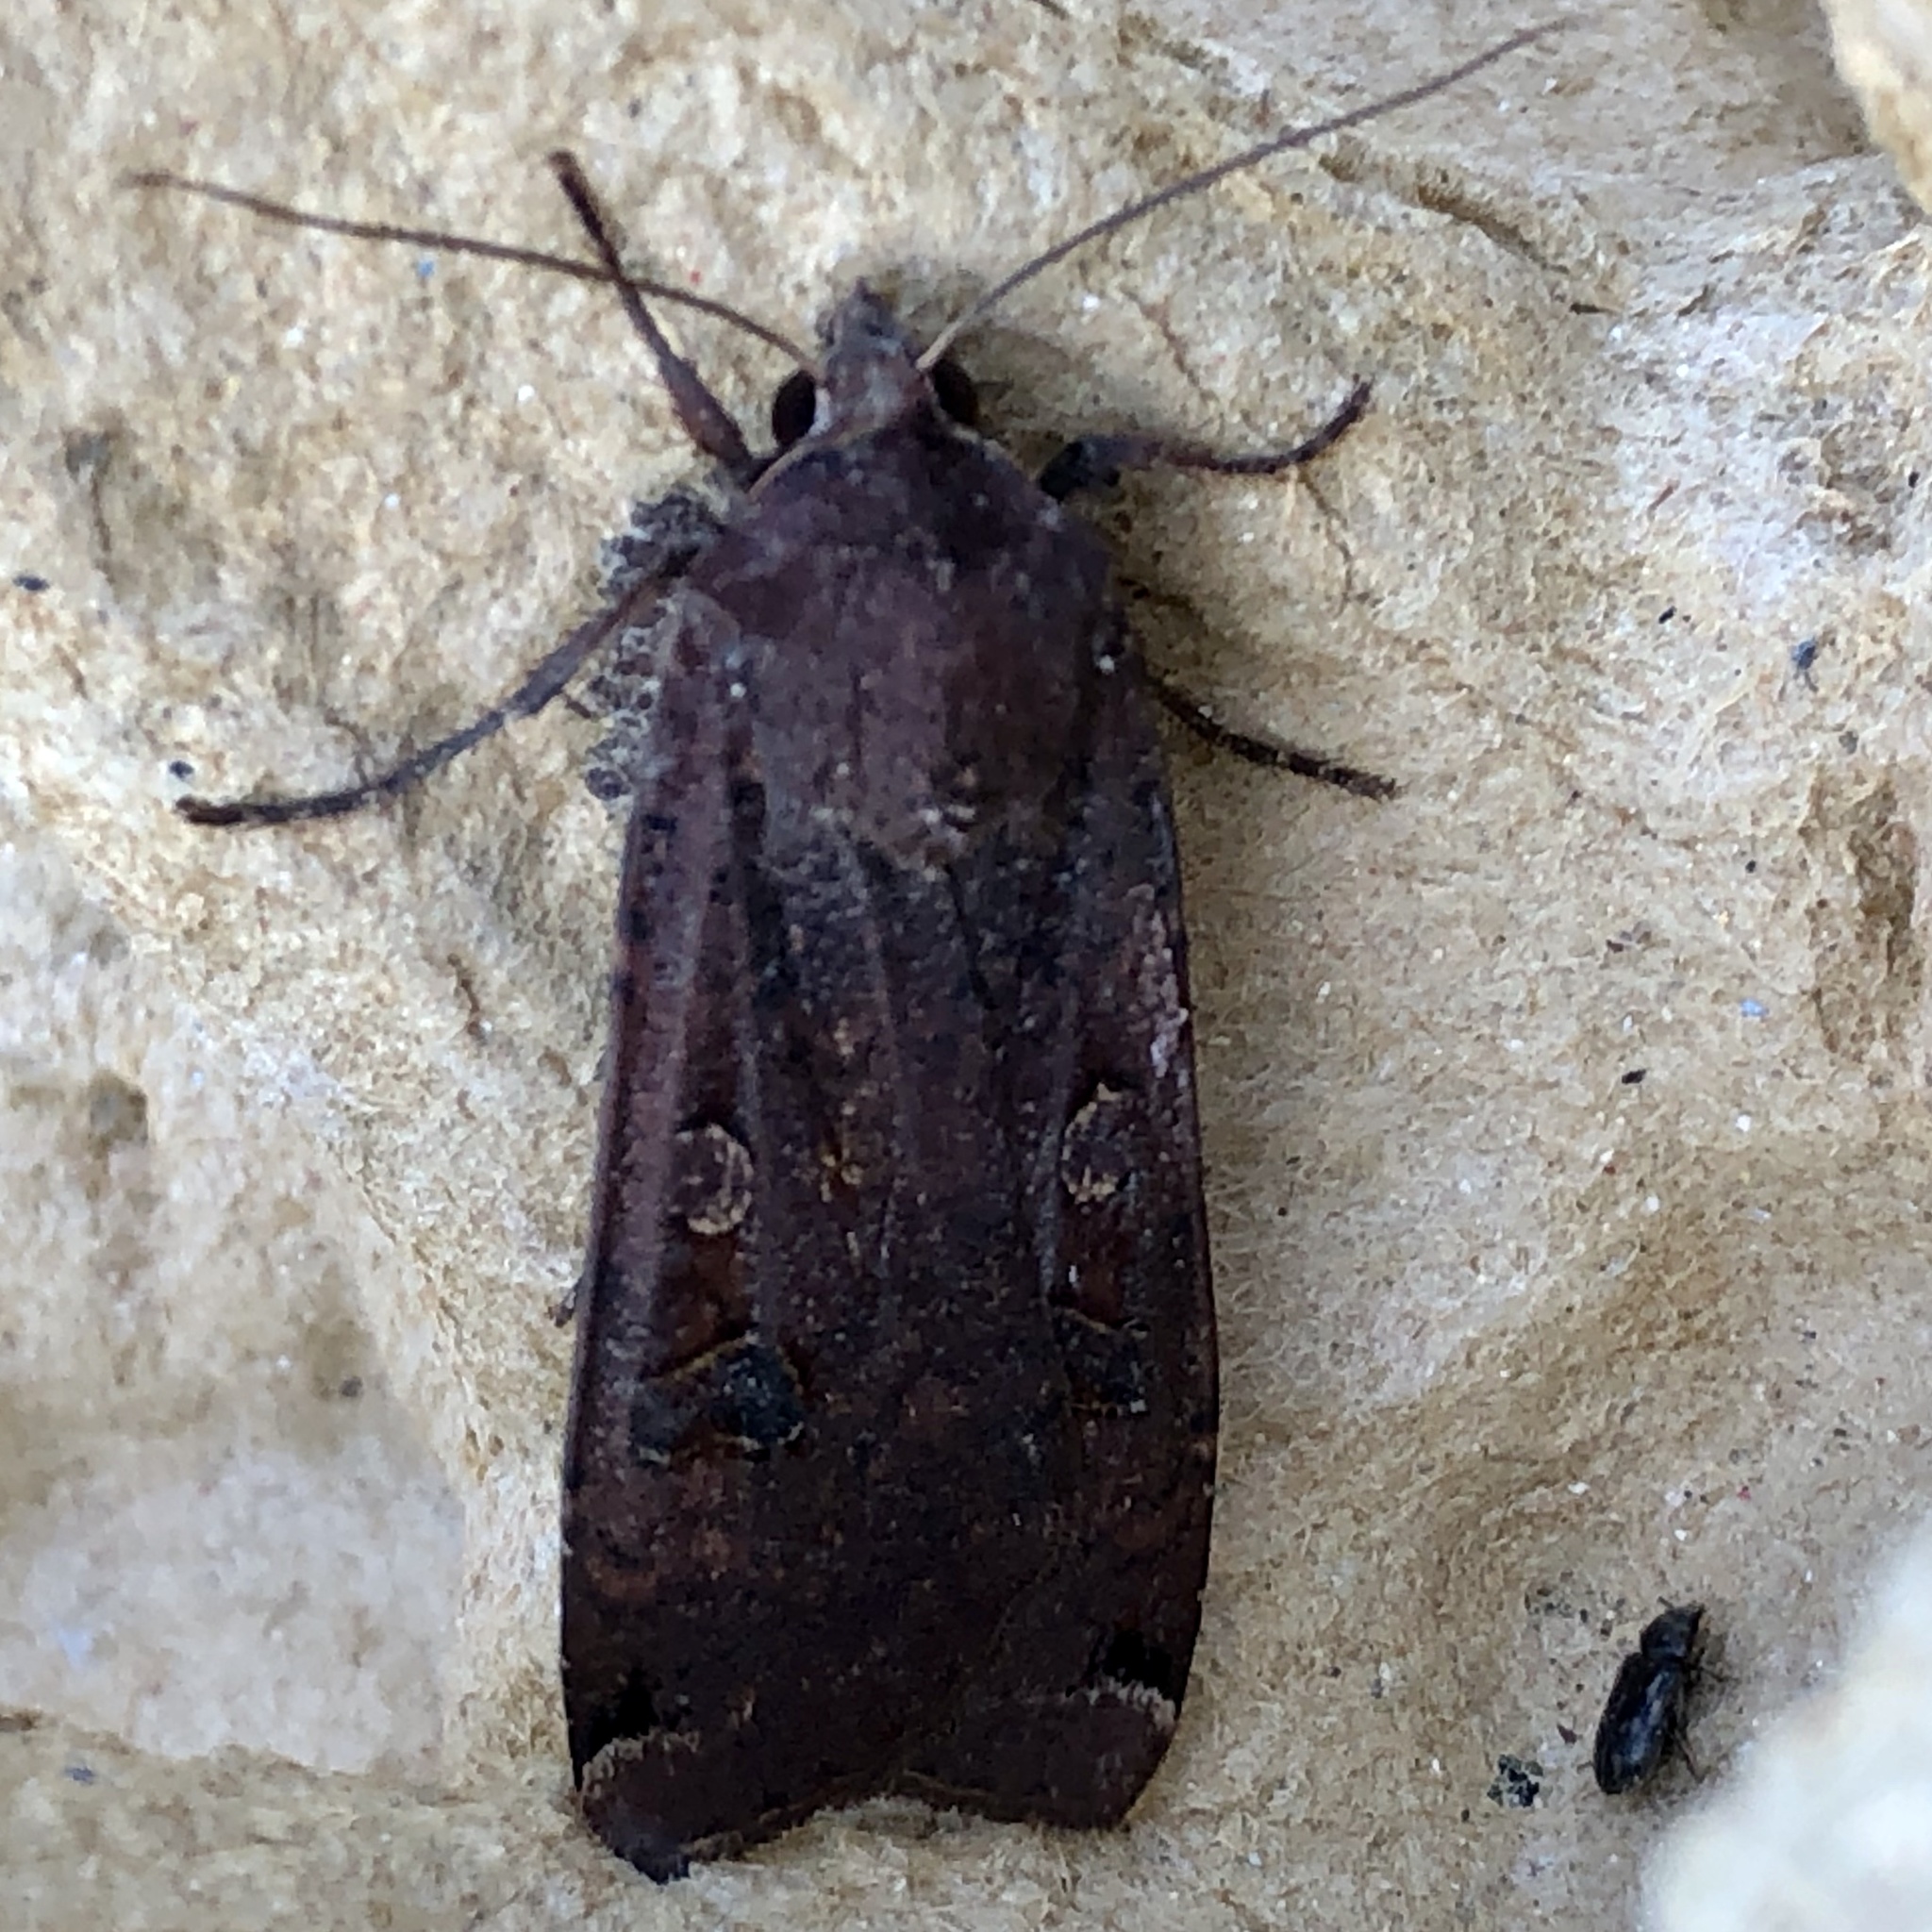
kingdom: Animalia
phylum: Arthropoda
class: Insecta
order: Lepidoptera
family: Noctuidae
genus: Noctua
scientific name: Noctua pronuba
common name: Large yellow underwing
